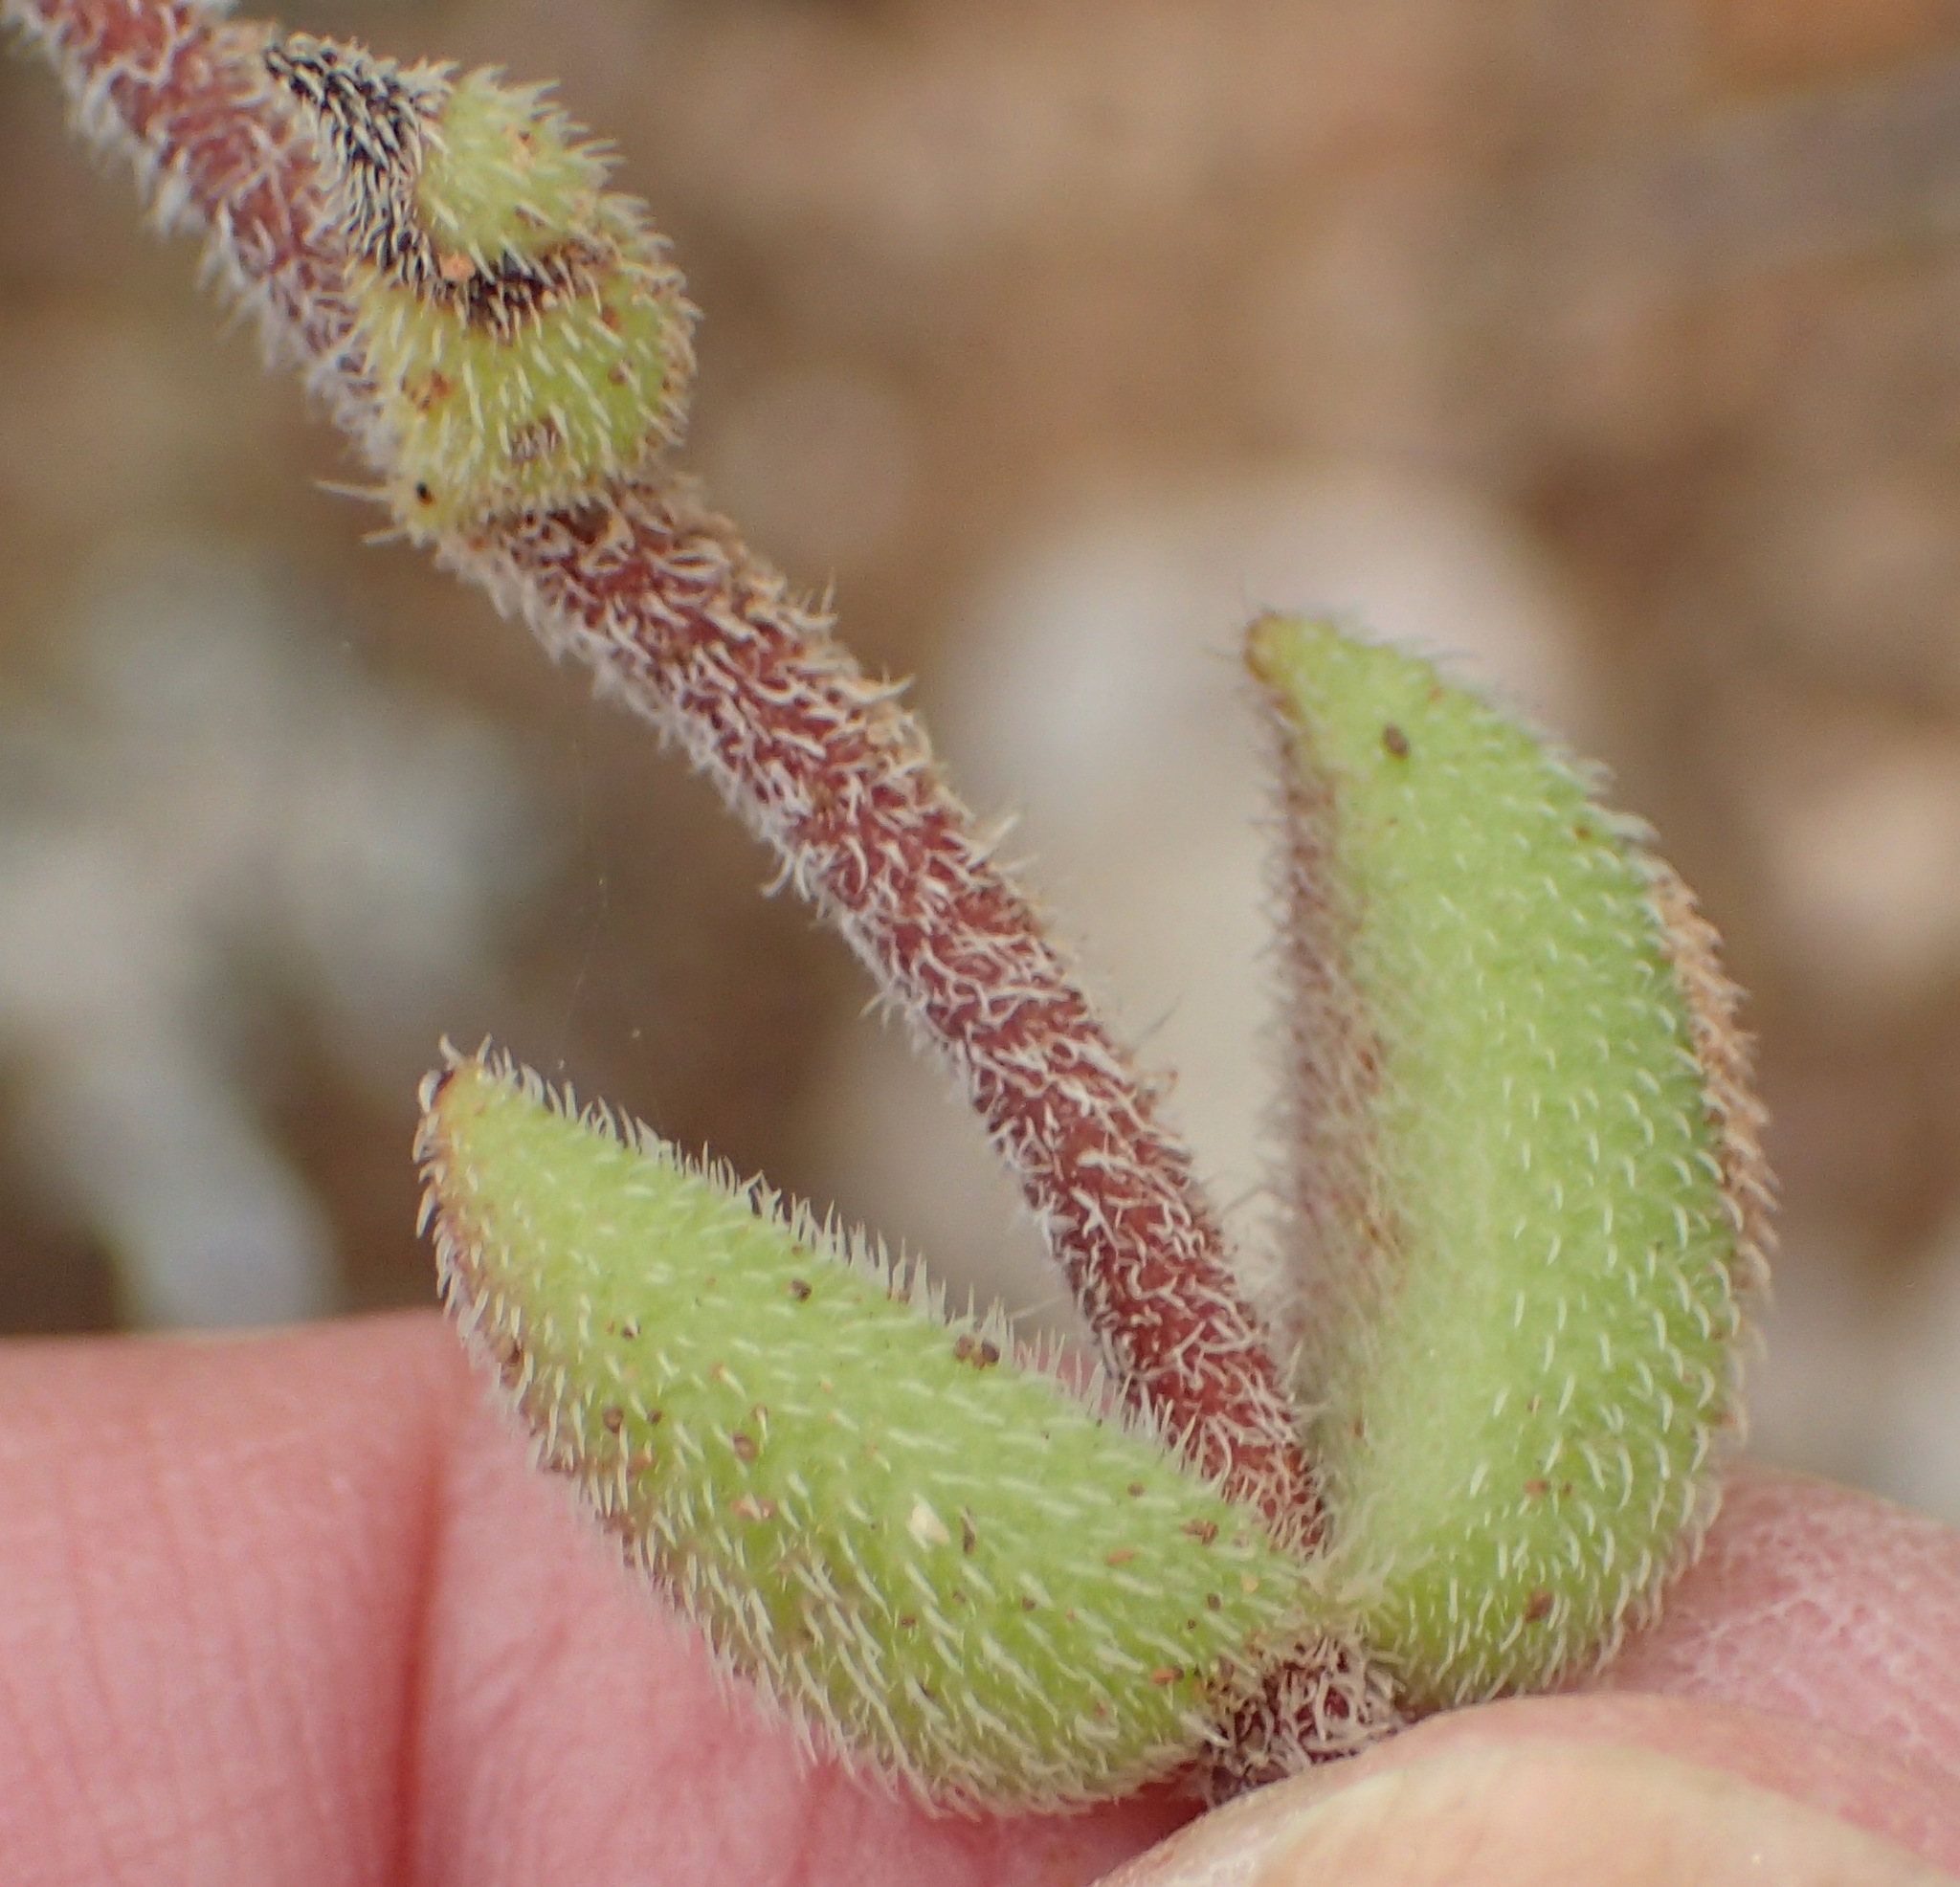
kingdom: Plantae
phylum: Tracheophyta
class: Magnoliopsida
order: Saxifragales
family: Crassulaceae
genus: Crassula
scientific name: Crassula mesembryanthoides
